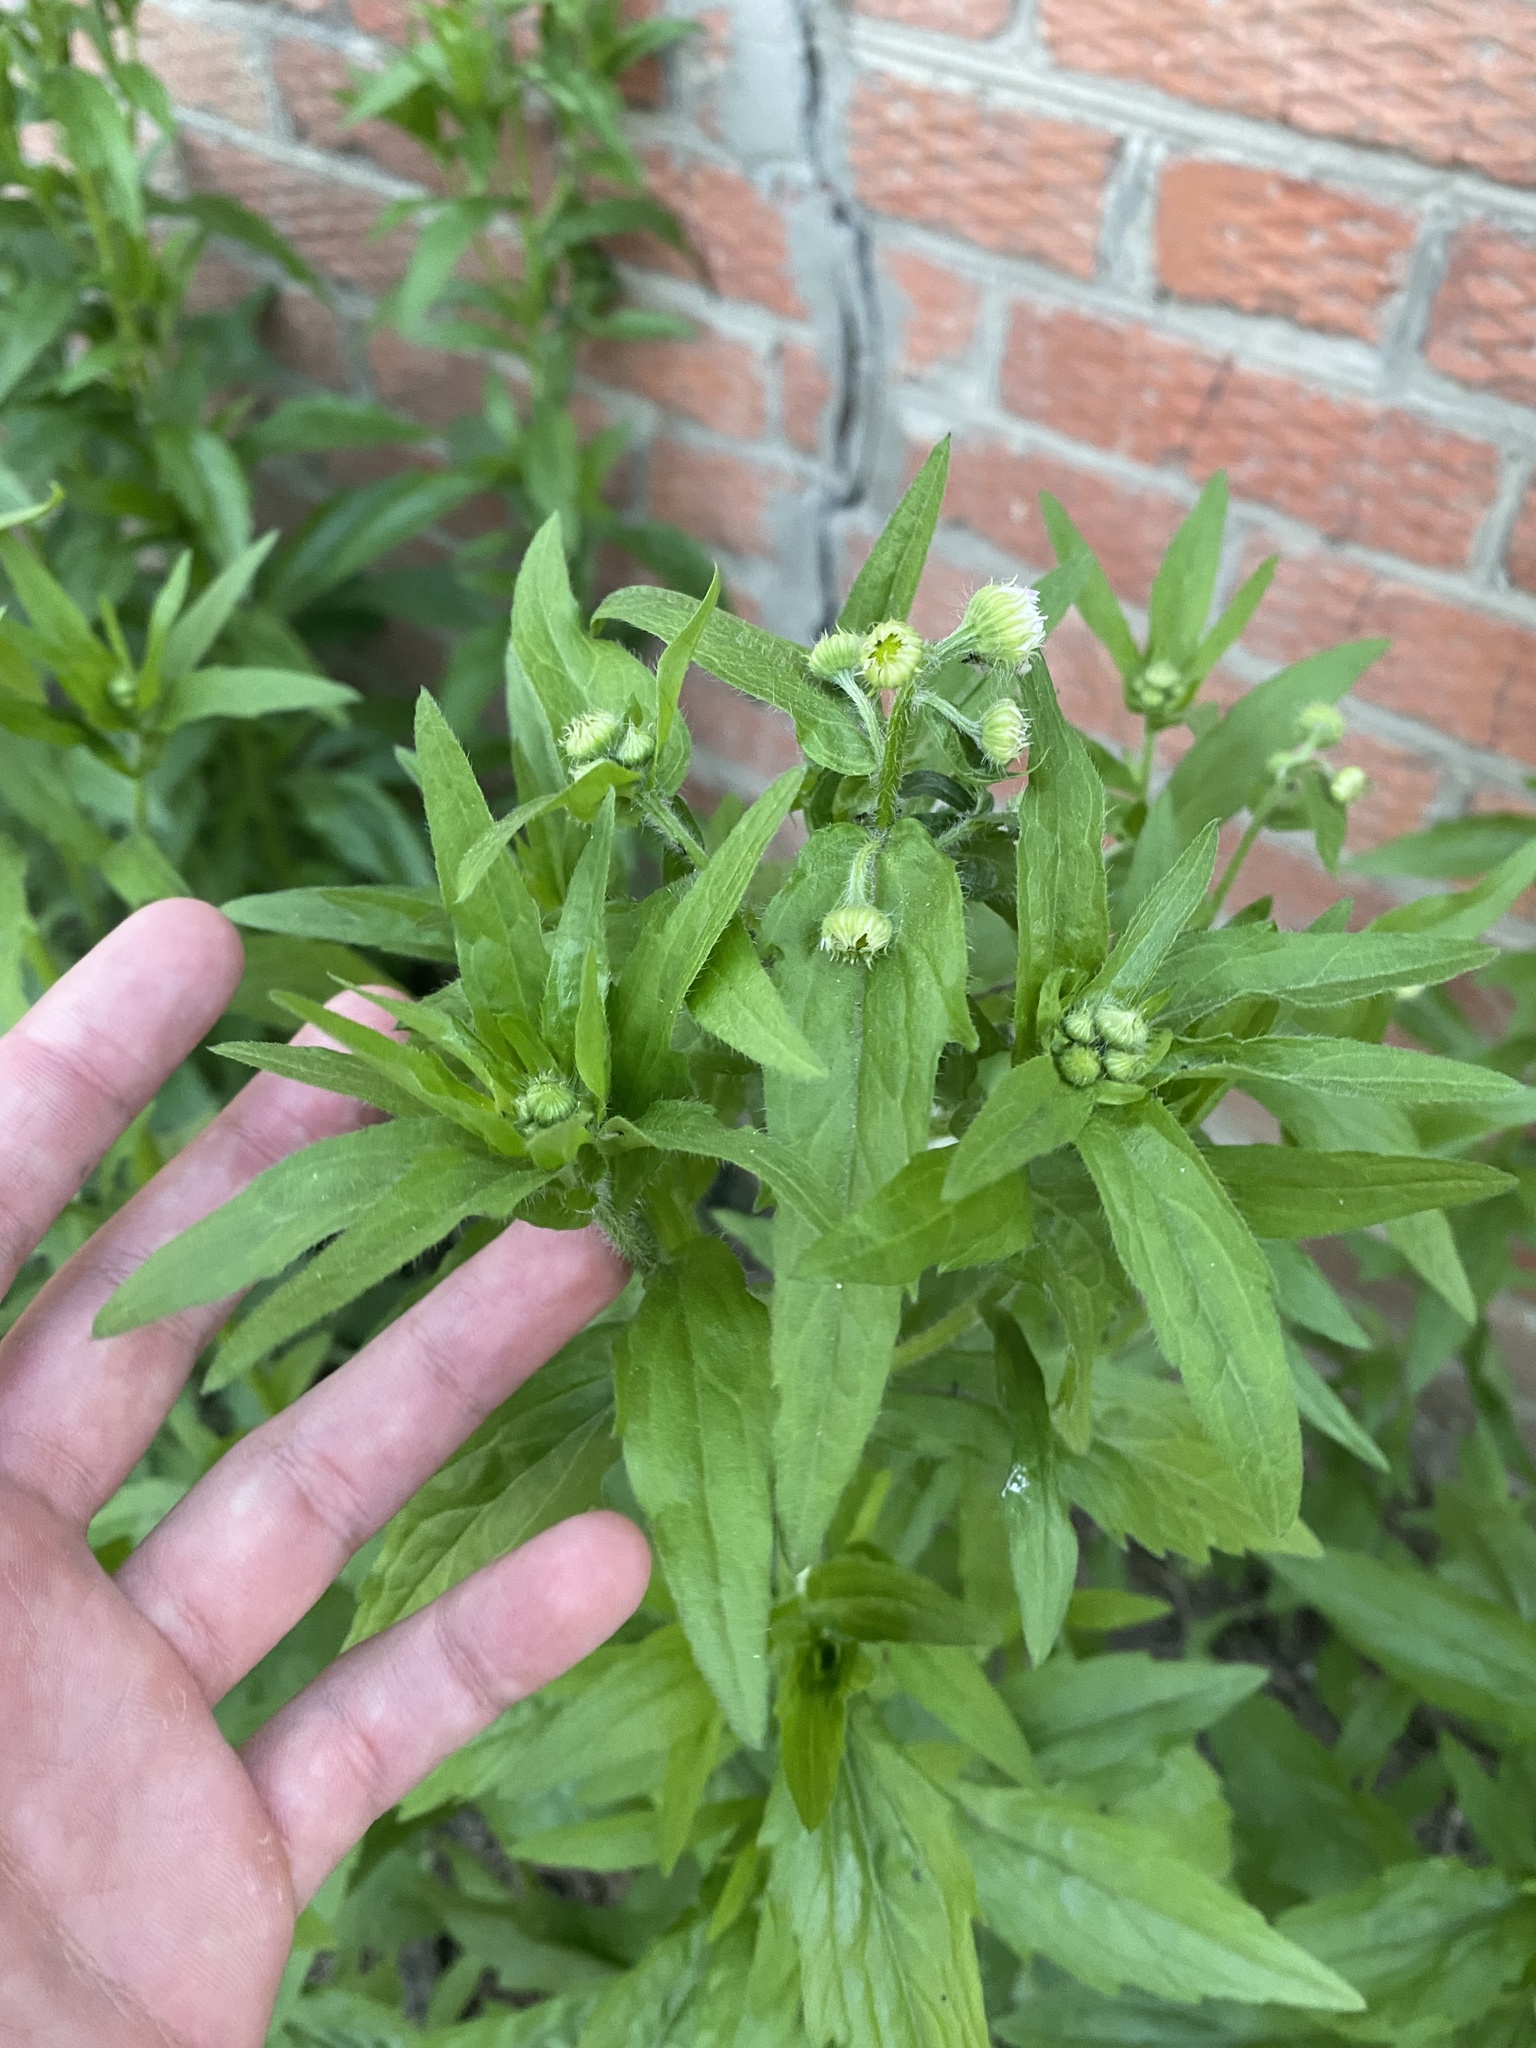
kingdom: Plantae
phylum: Tracheophyta
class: Magnoliopsida
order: Asterales
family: Asteraceae
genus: Erigeron
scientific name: Erigeron annuus
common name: Tall fleabane
